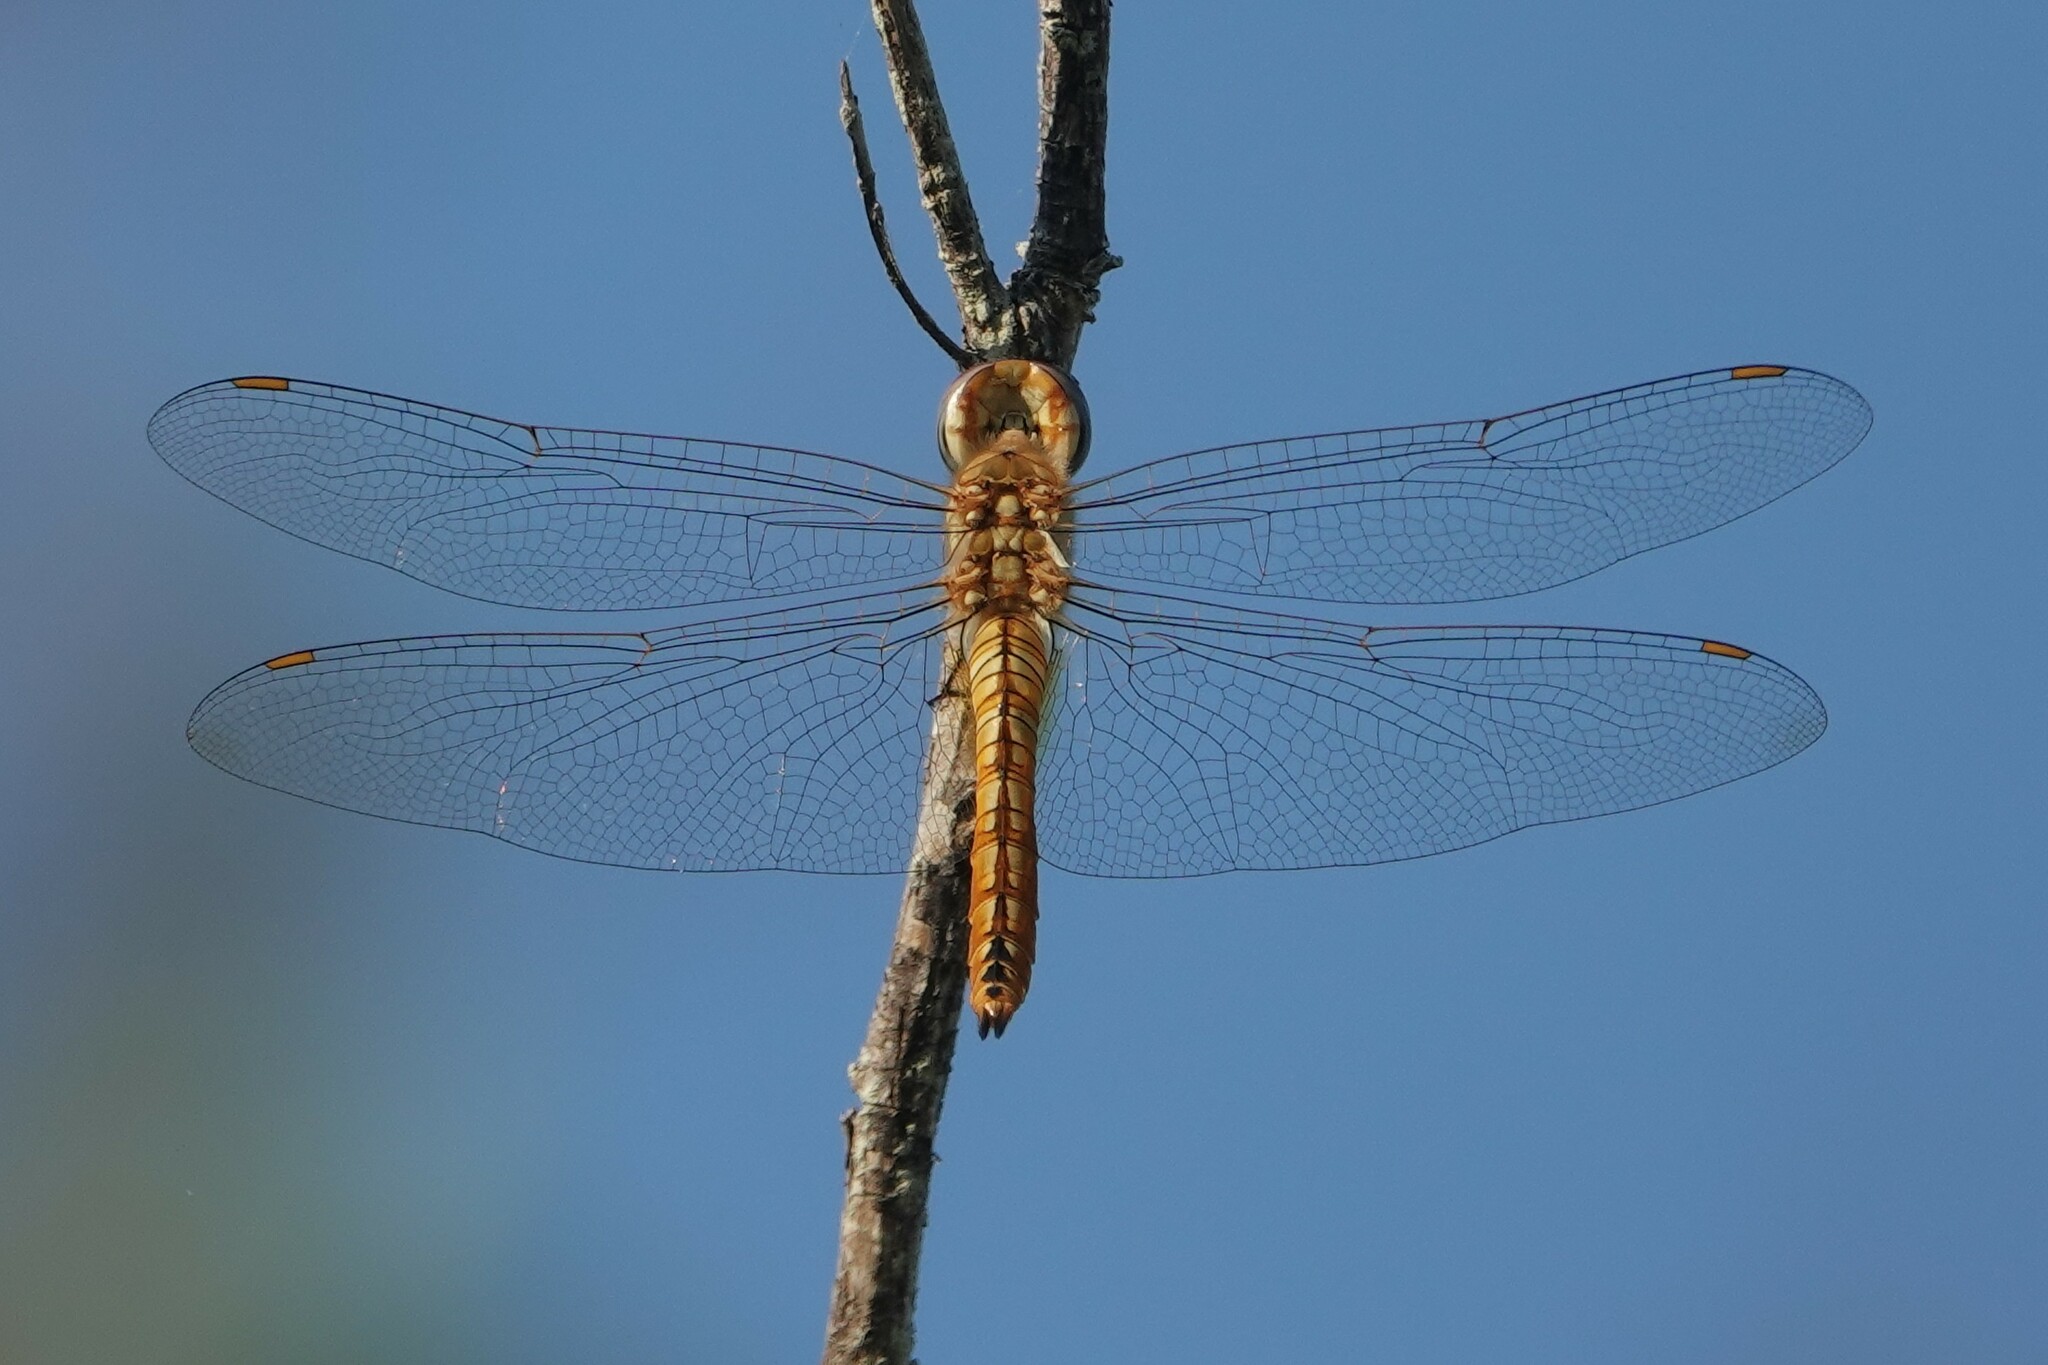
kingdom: Animalia
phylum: Arthropoda
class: Insecta
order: Odonata
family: Libellulidae
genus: Pantala
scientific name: Pantala flavescens
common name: Wandering glider
